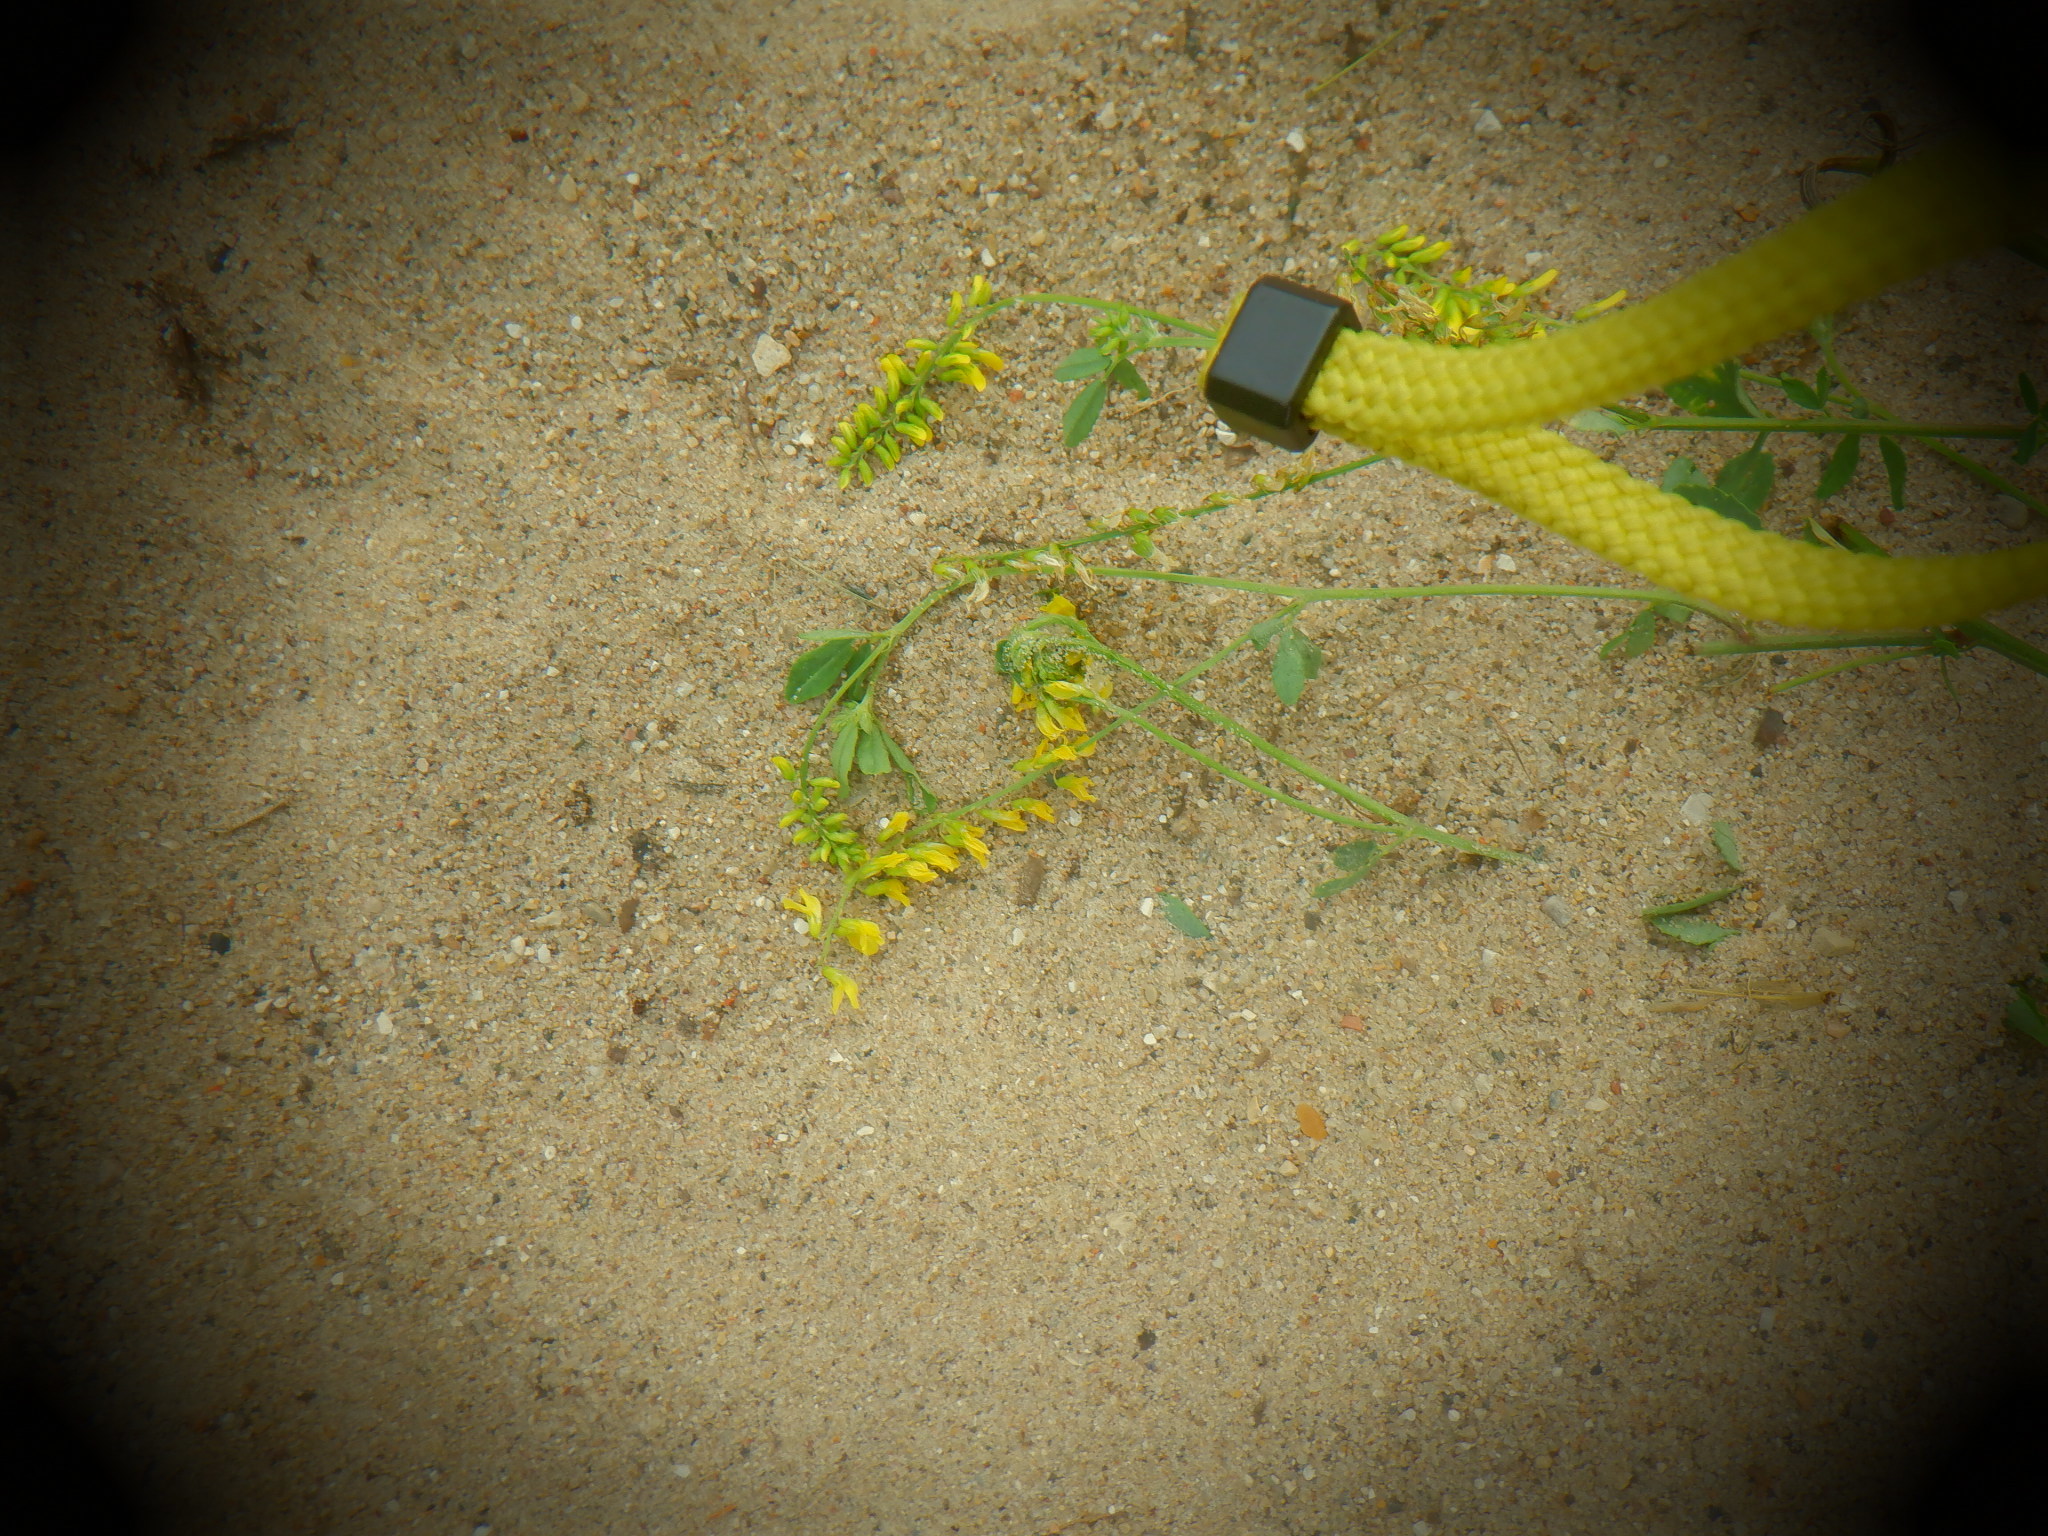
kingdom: Plantae
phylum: Tracheophyta
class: Magnoliopsida
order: Fabales
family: Fabaceae
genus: Melilotus
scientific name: Melilotus officinalis
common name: Sweetclover
